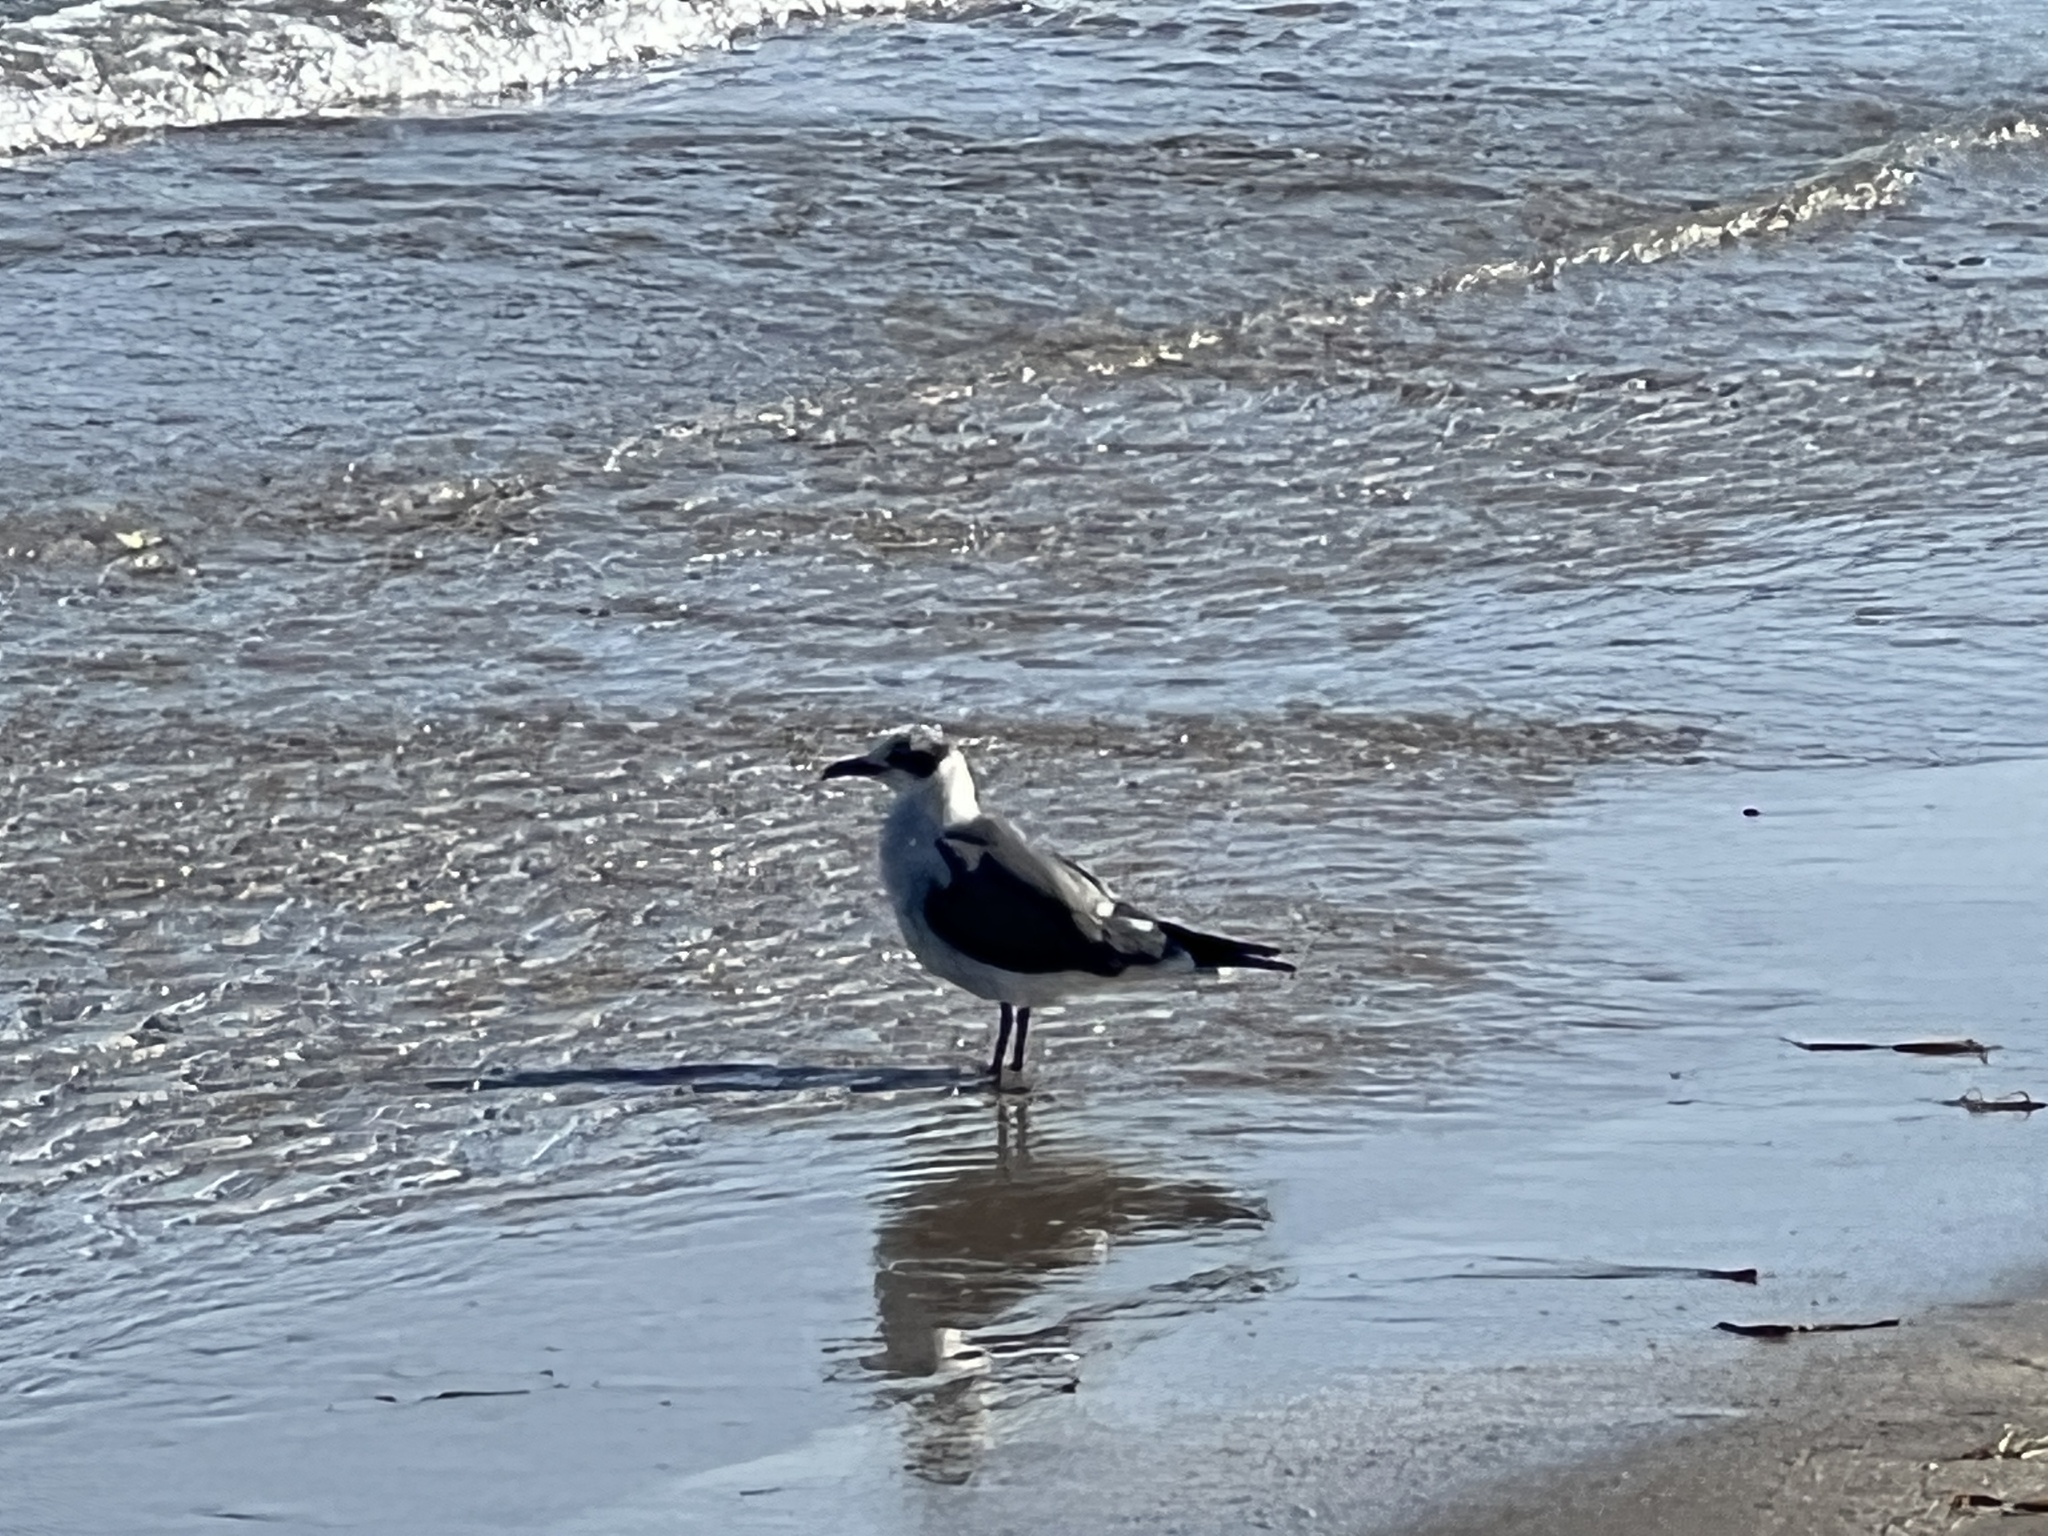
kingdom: Animalia
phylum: Chordata
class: Aves
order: Charadriiformes
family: Laridae
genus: Leucophaeus
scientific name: Leucophaeus atricilla
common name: Laughing gull
